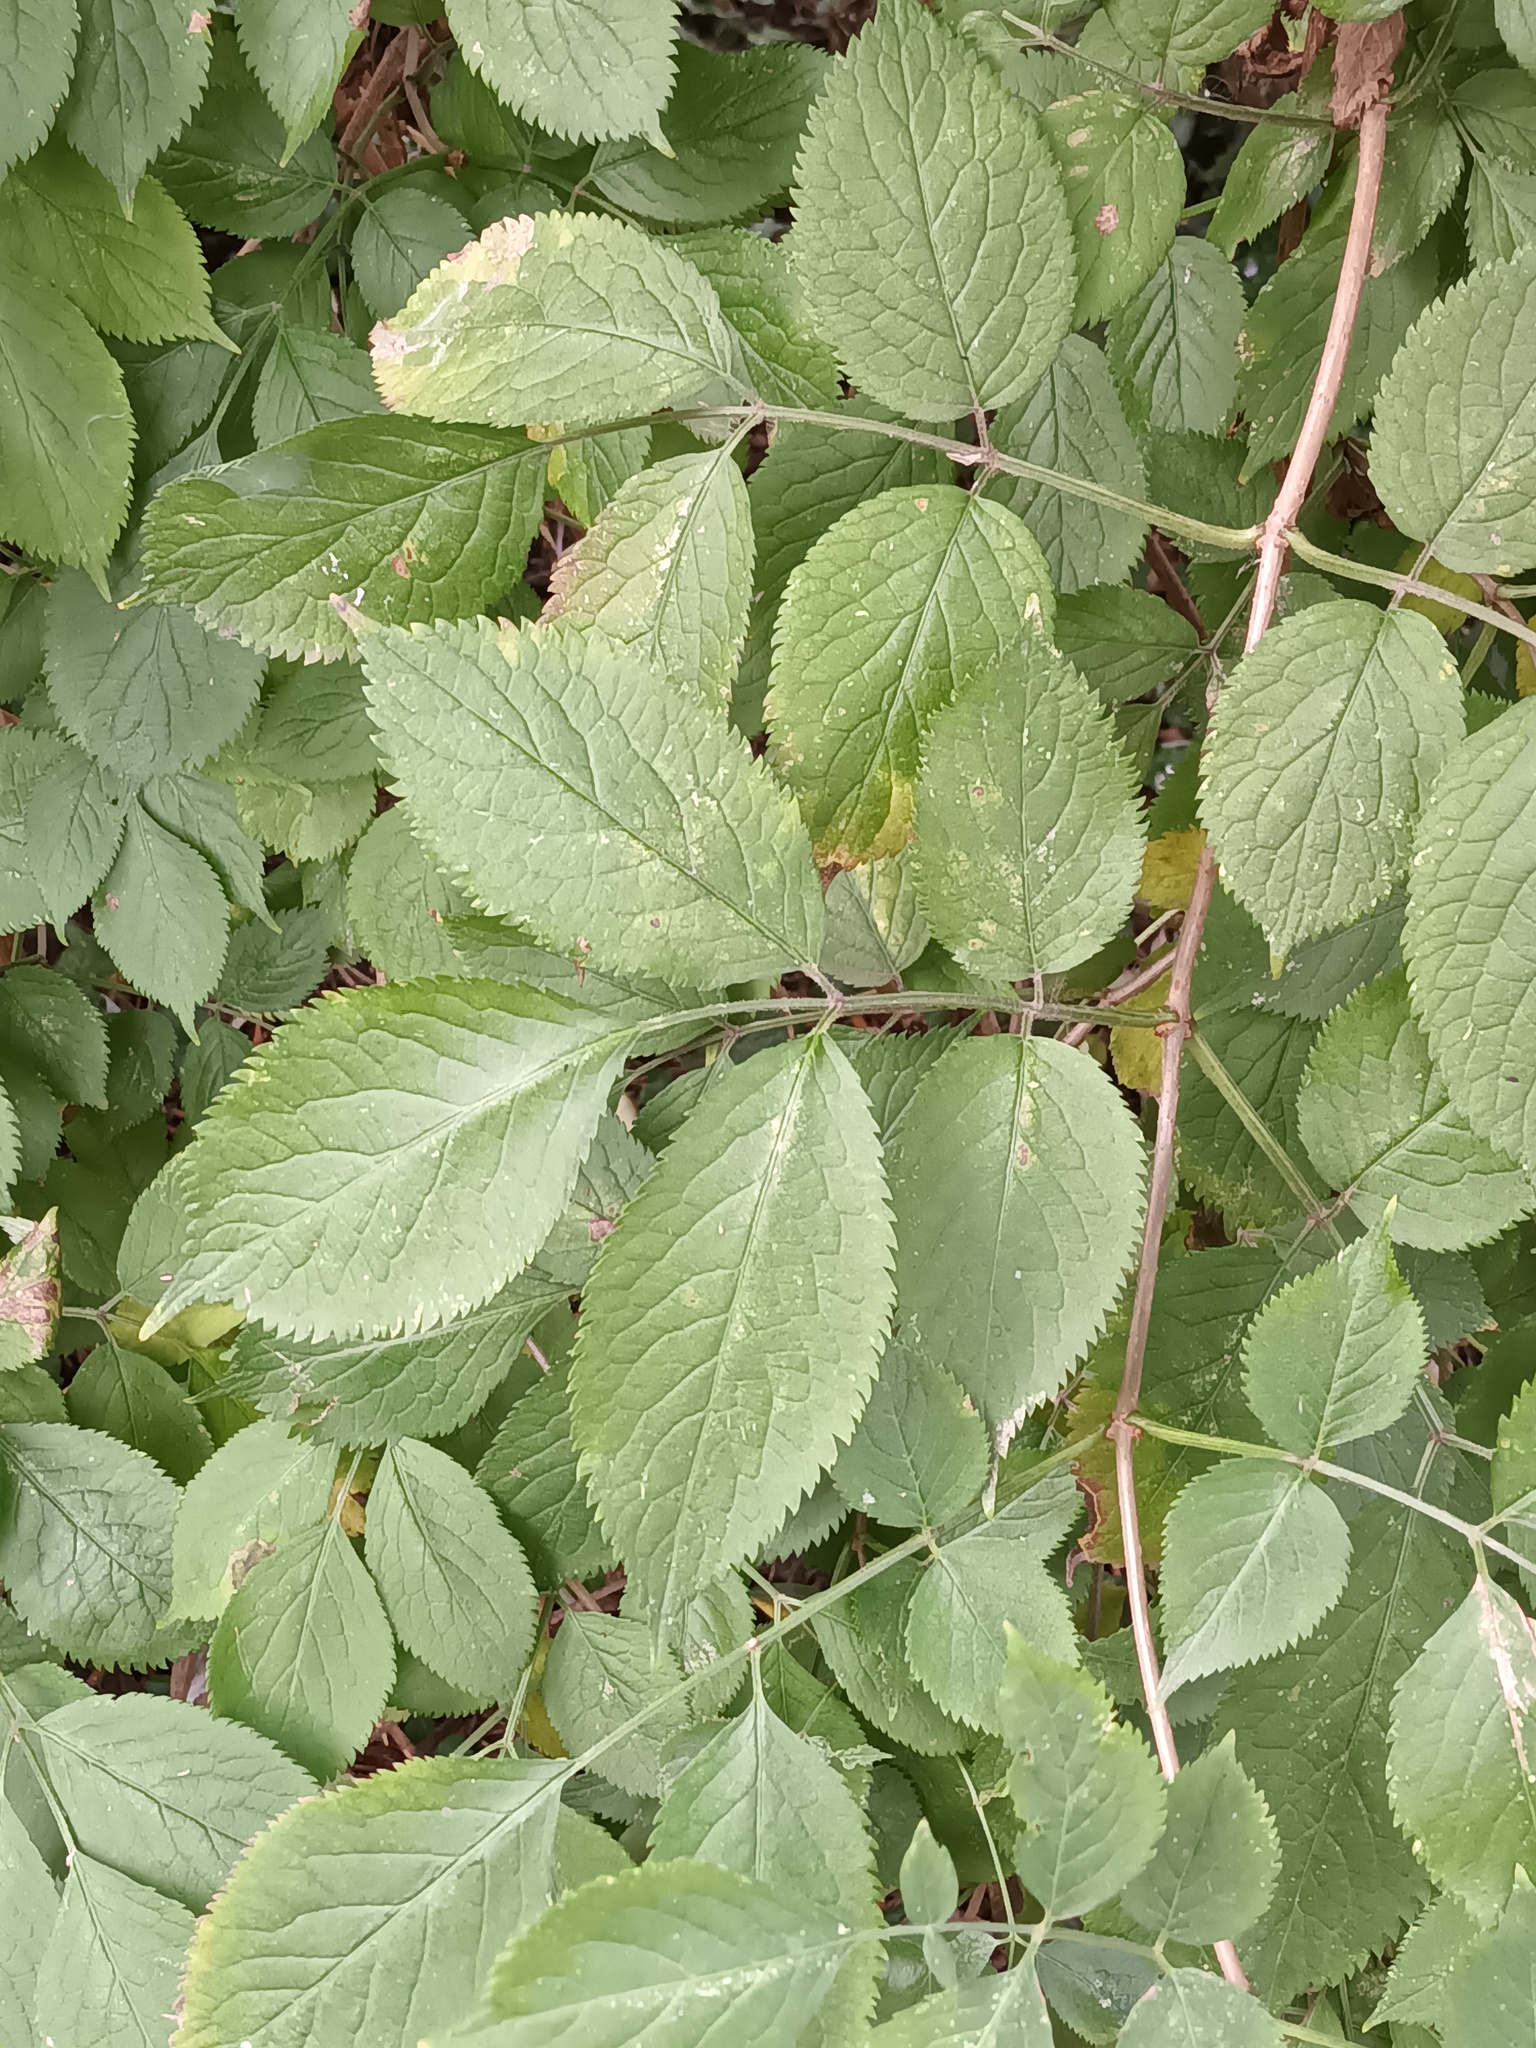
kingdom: Plantae
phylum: Tracheophyta
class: Magnoliopsida
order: Dipsacales
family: Viburnaceae
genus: Sambucus
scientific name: Sambucus nigra
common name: Elder
